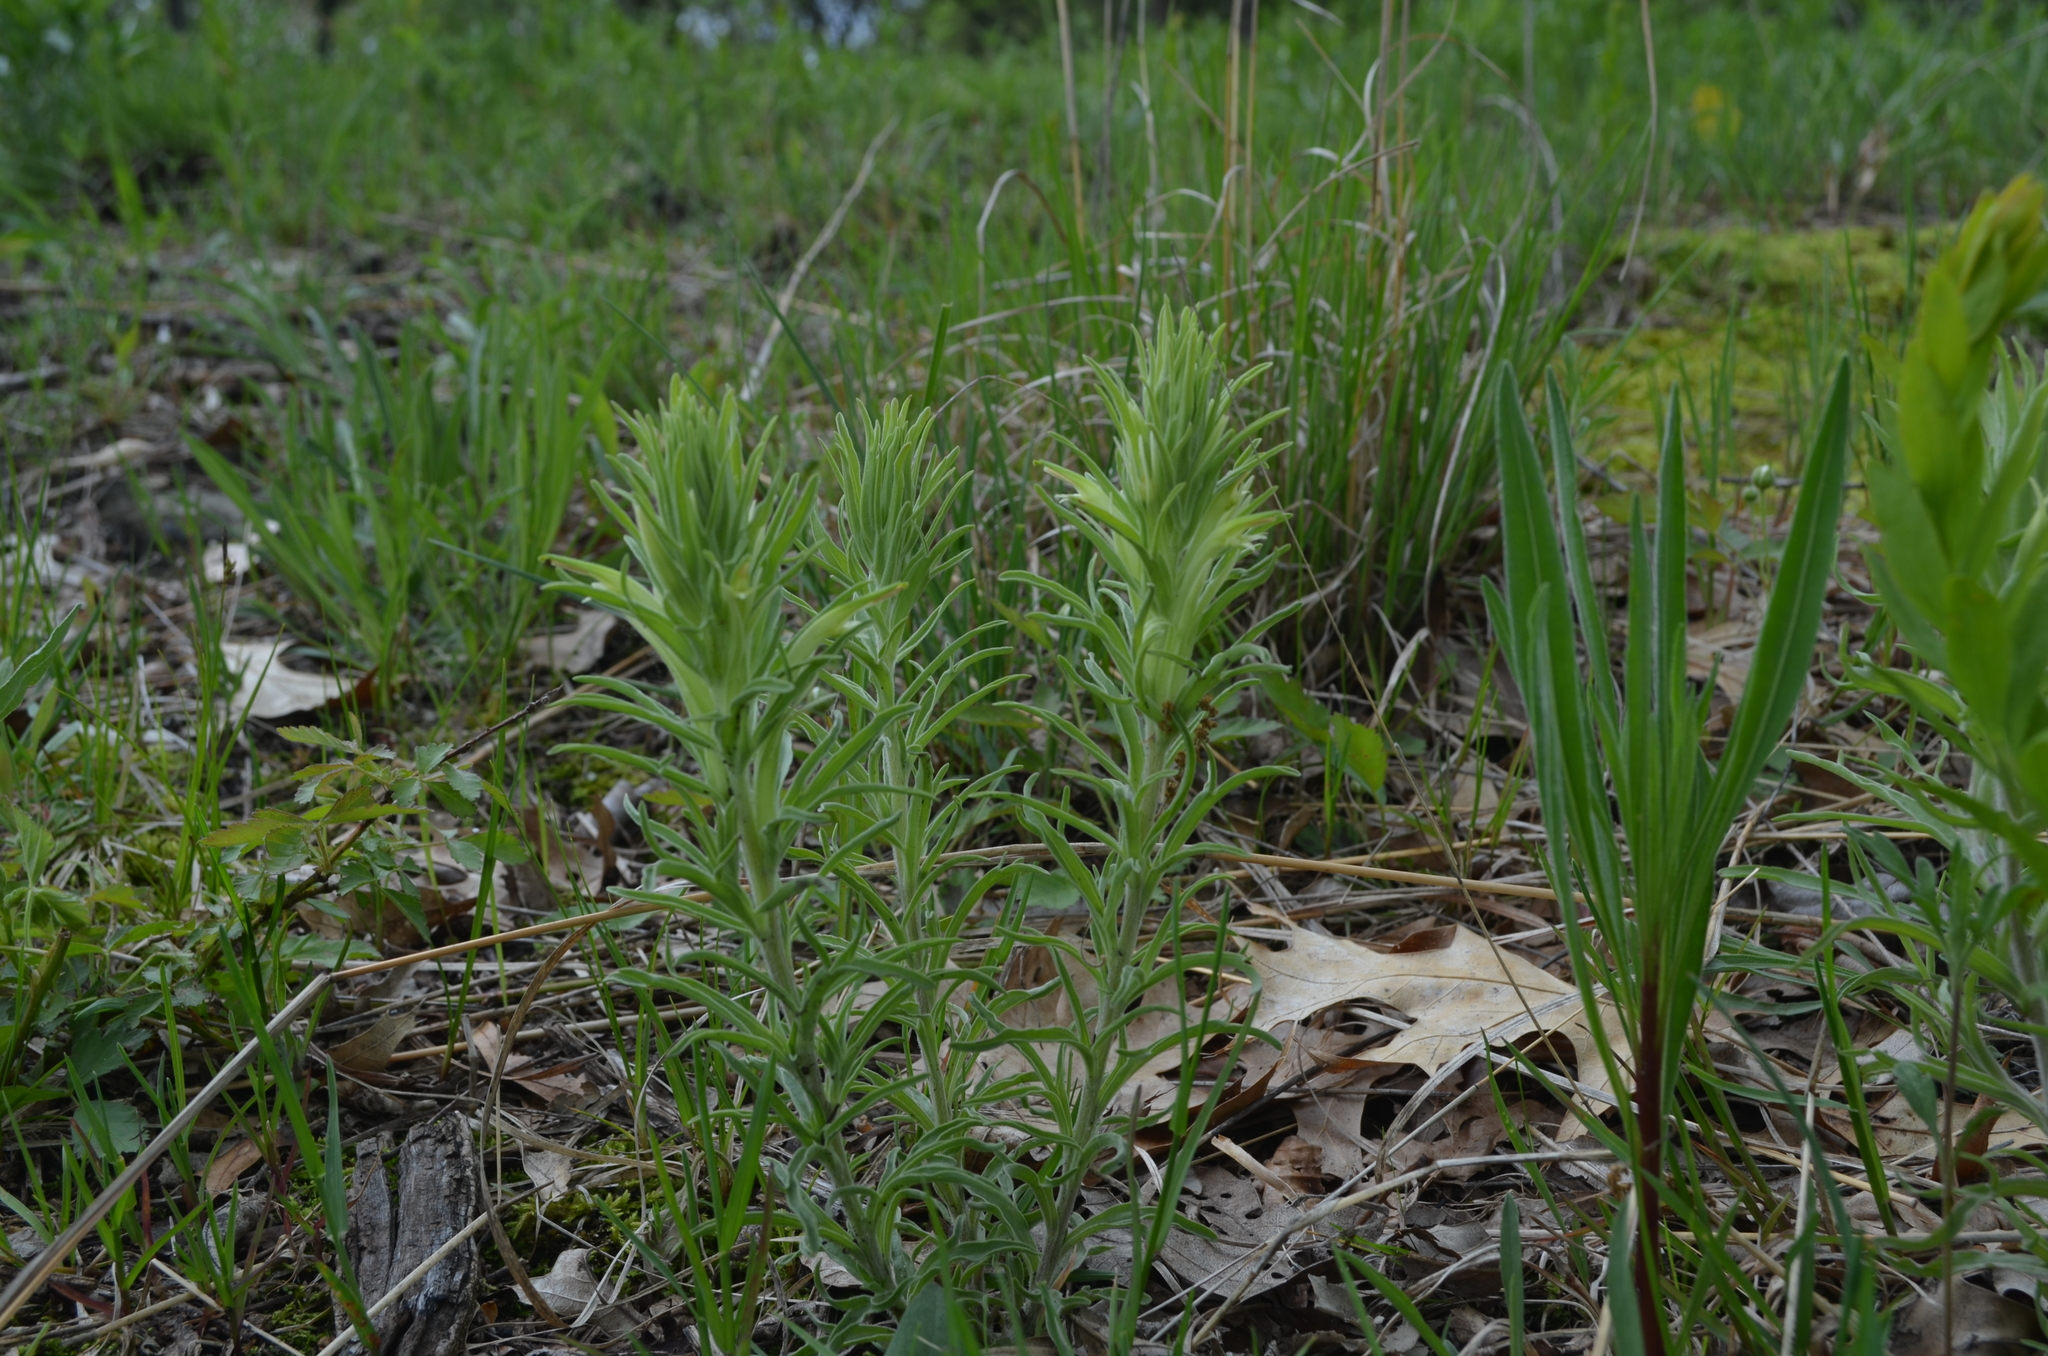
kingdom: Plantae
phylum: Tracheophyta
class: Magnoliopsida
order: Lamiales
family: Orobanchaceae
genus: Castilleja
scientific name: Castilleja sessiliflora
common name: Downy paintbrush
